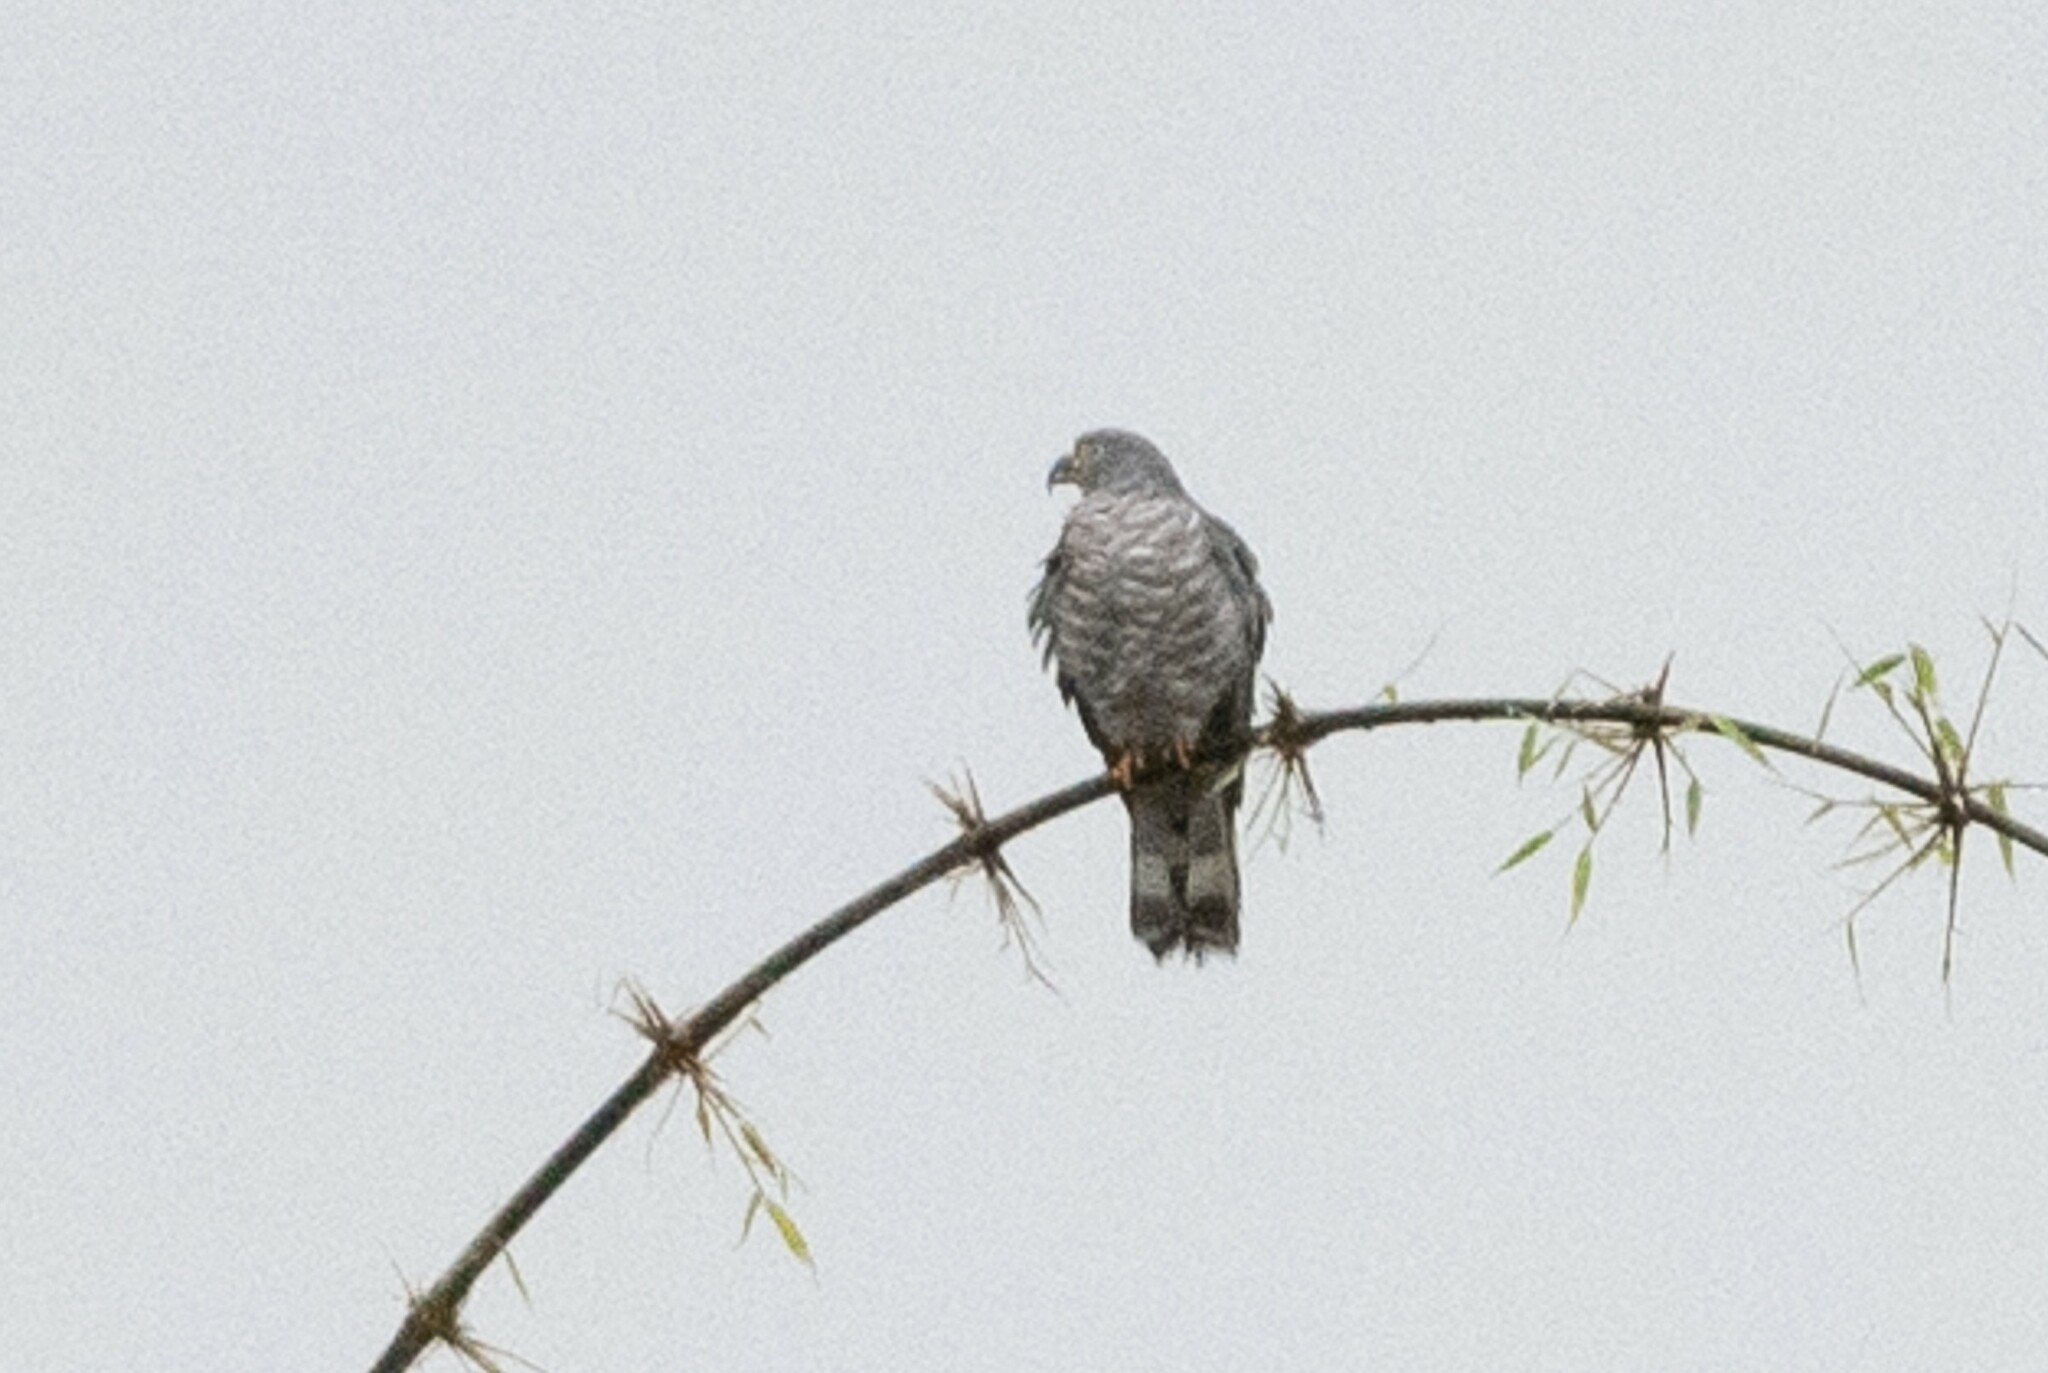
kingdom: Animalia
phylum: Chordata
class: Aves
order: Accipitriformes
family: Accipitridae
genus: Chondrohierax
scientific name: Chondrohierax uncinatus
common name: Hook-billed kite
